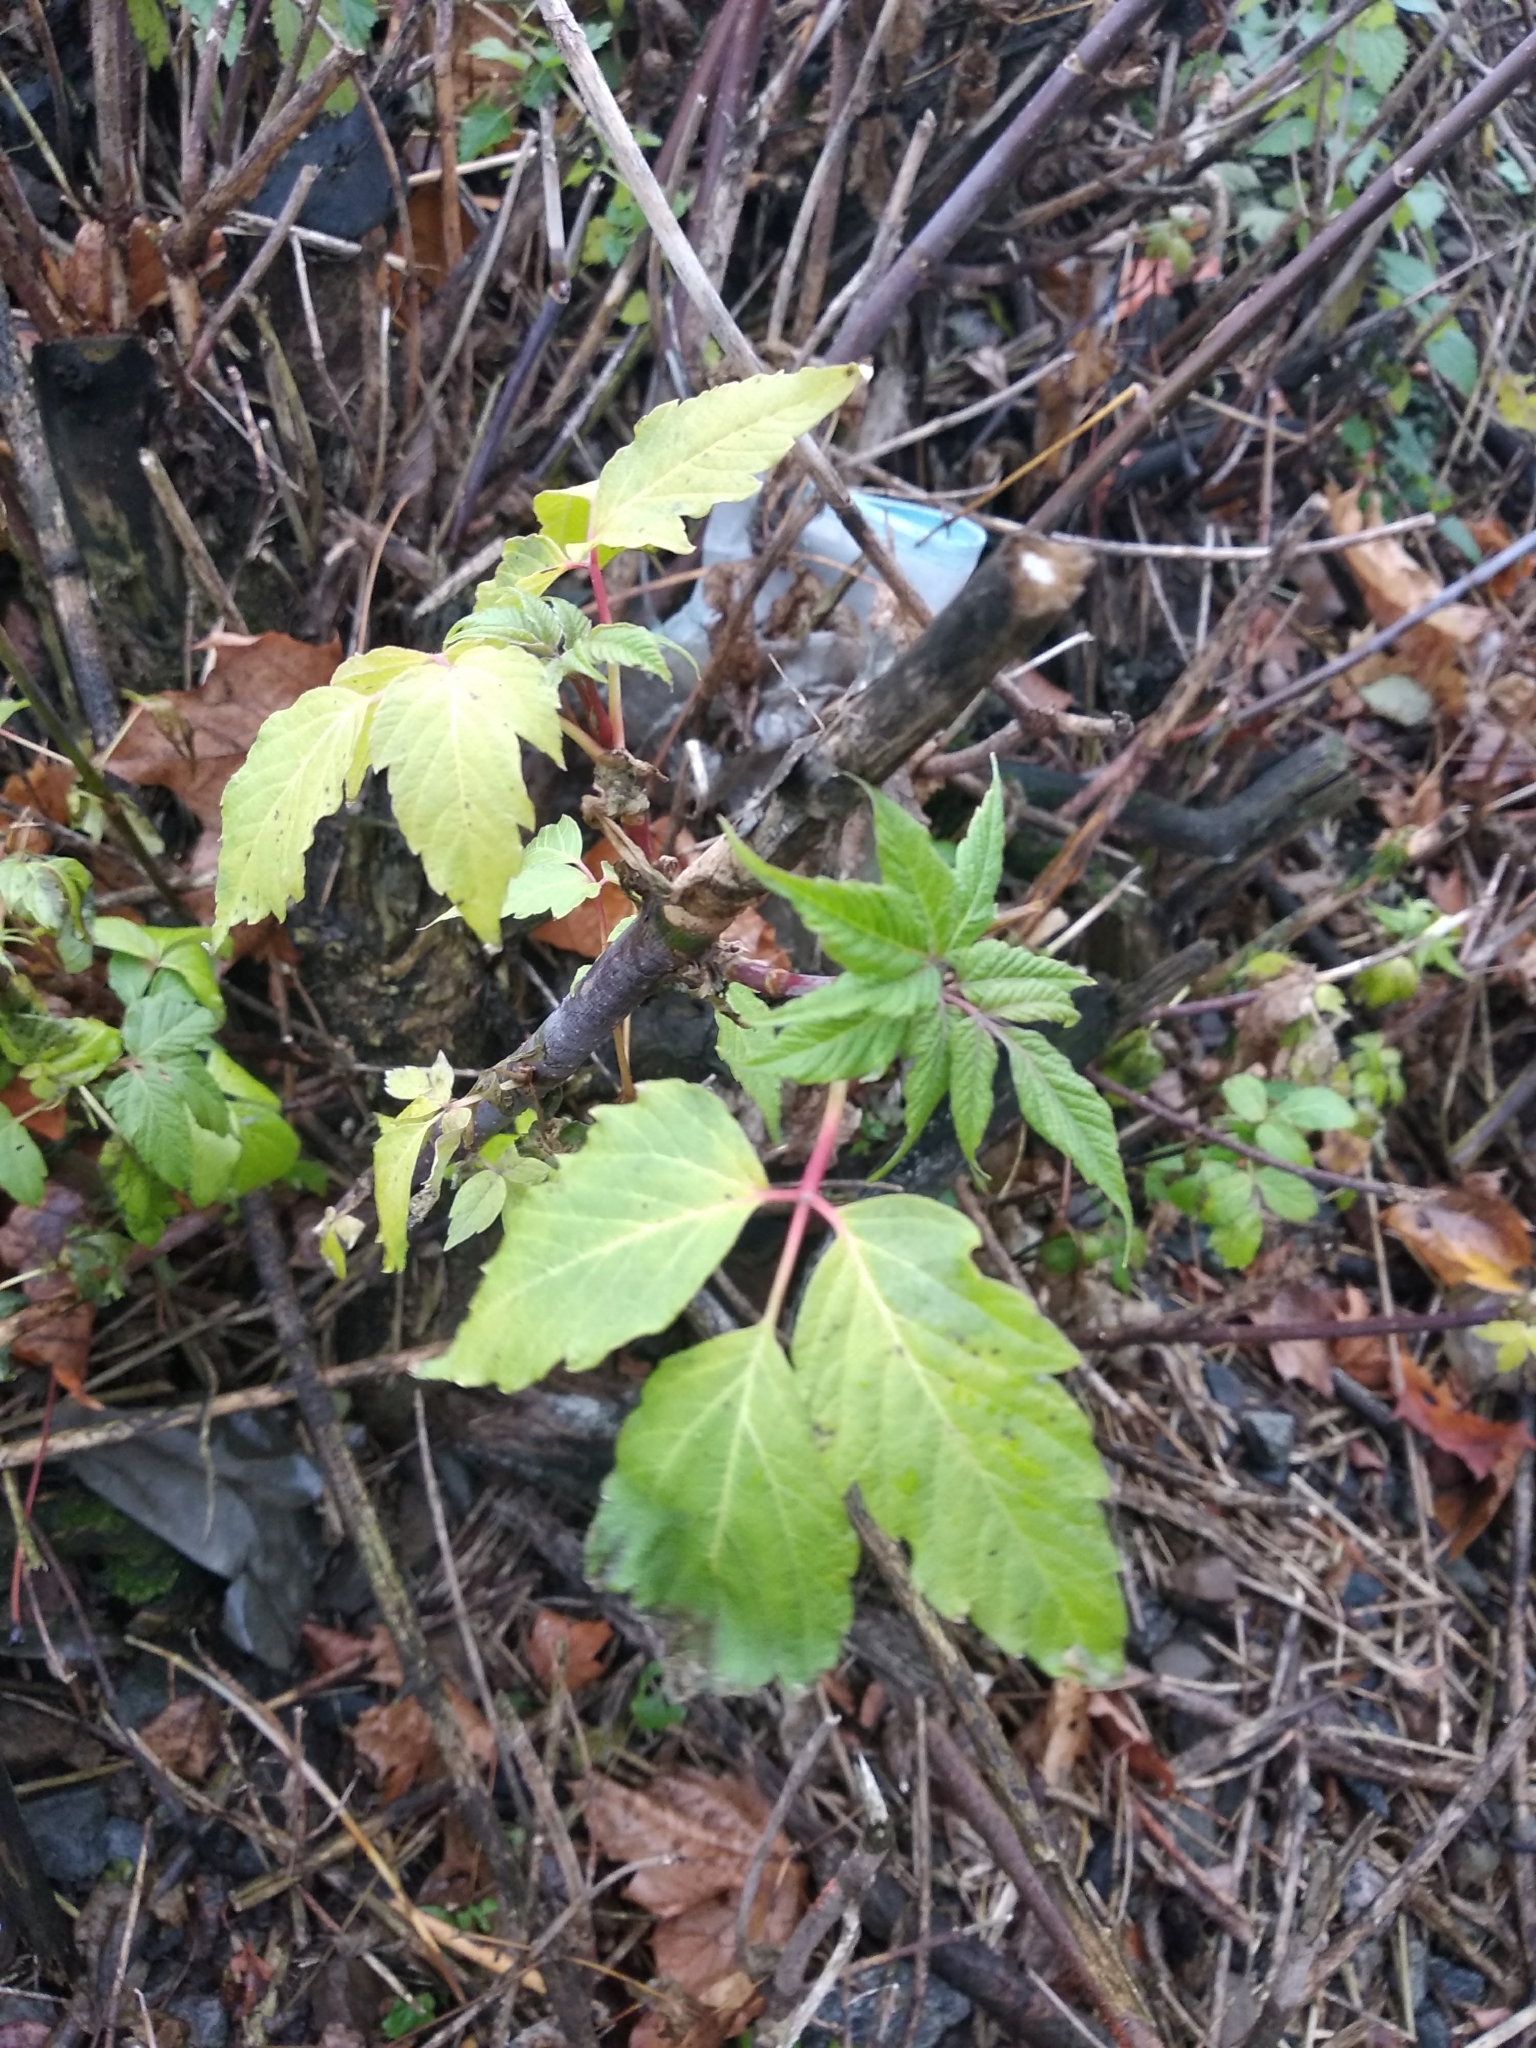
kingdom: Plantae
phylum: Tracheophyta
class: Magnoliopsida
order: Sapindales
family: Sapindaceae
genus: Acer
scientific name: Acer negundo
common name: Ashleaf maple
